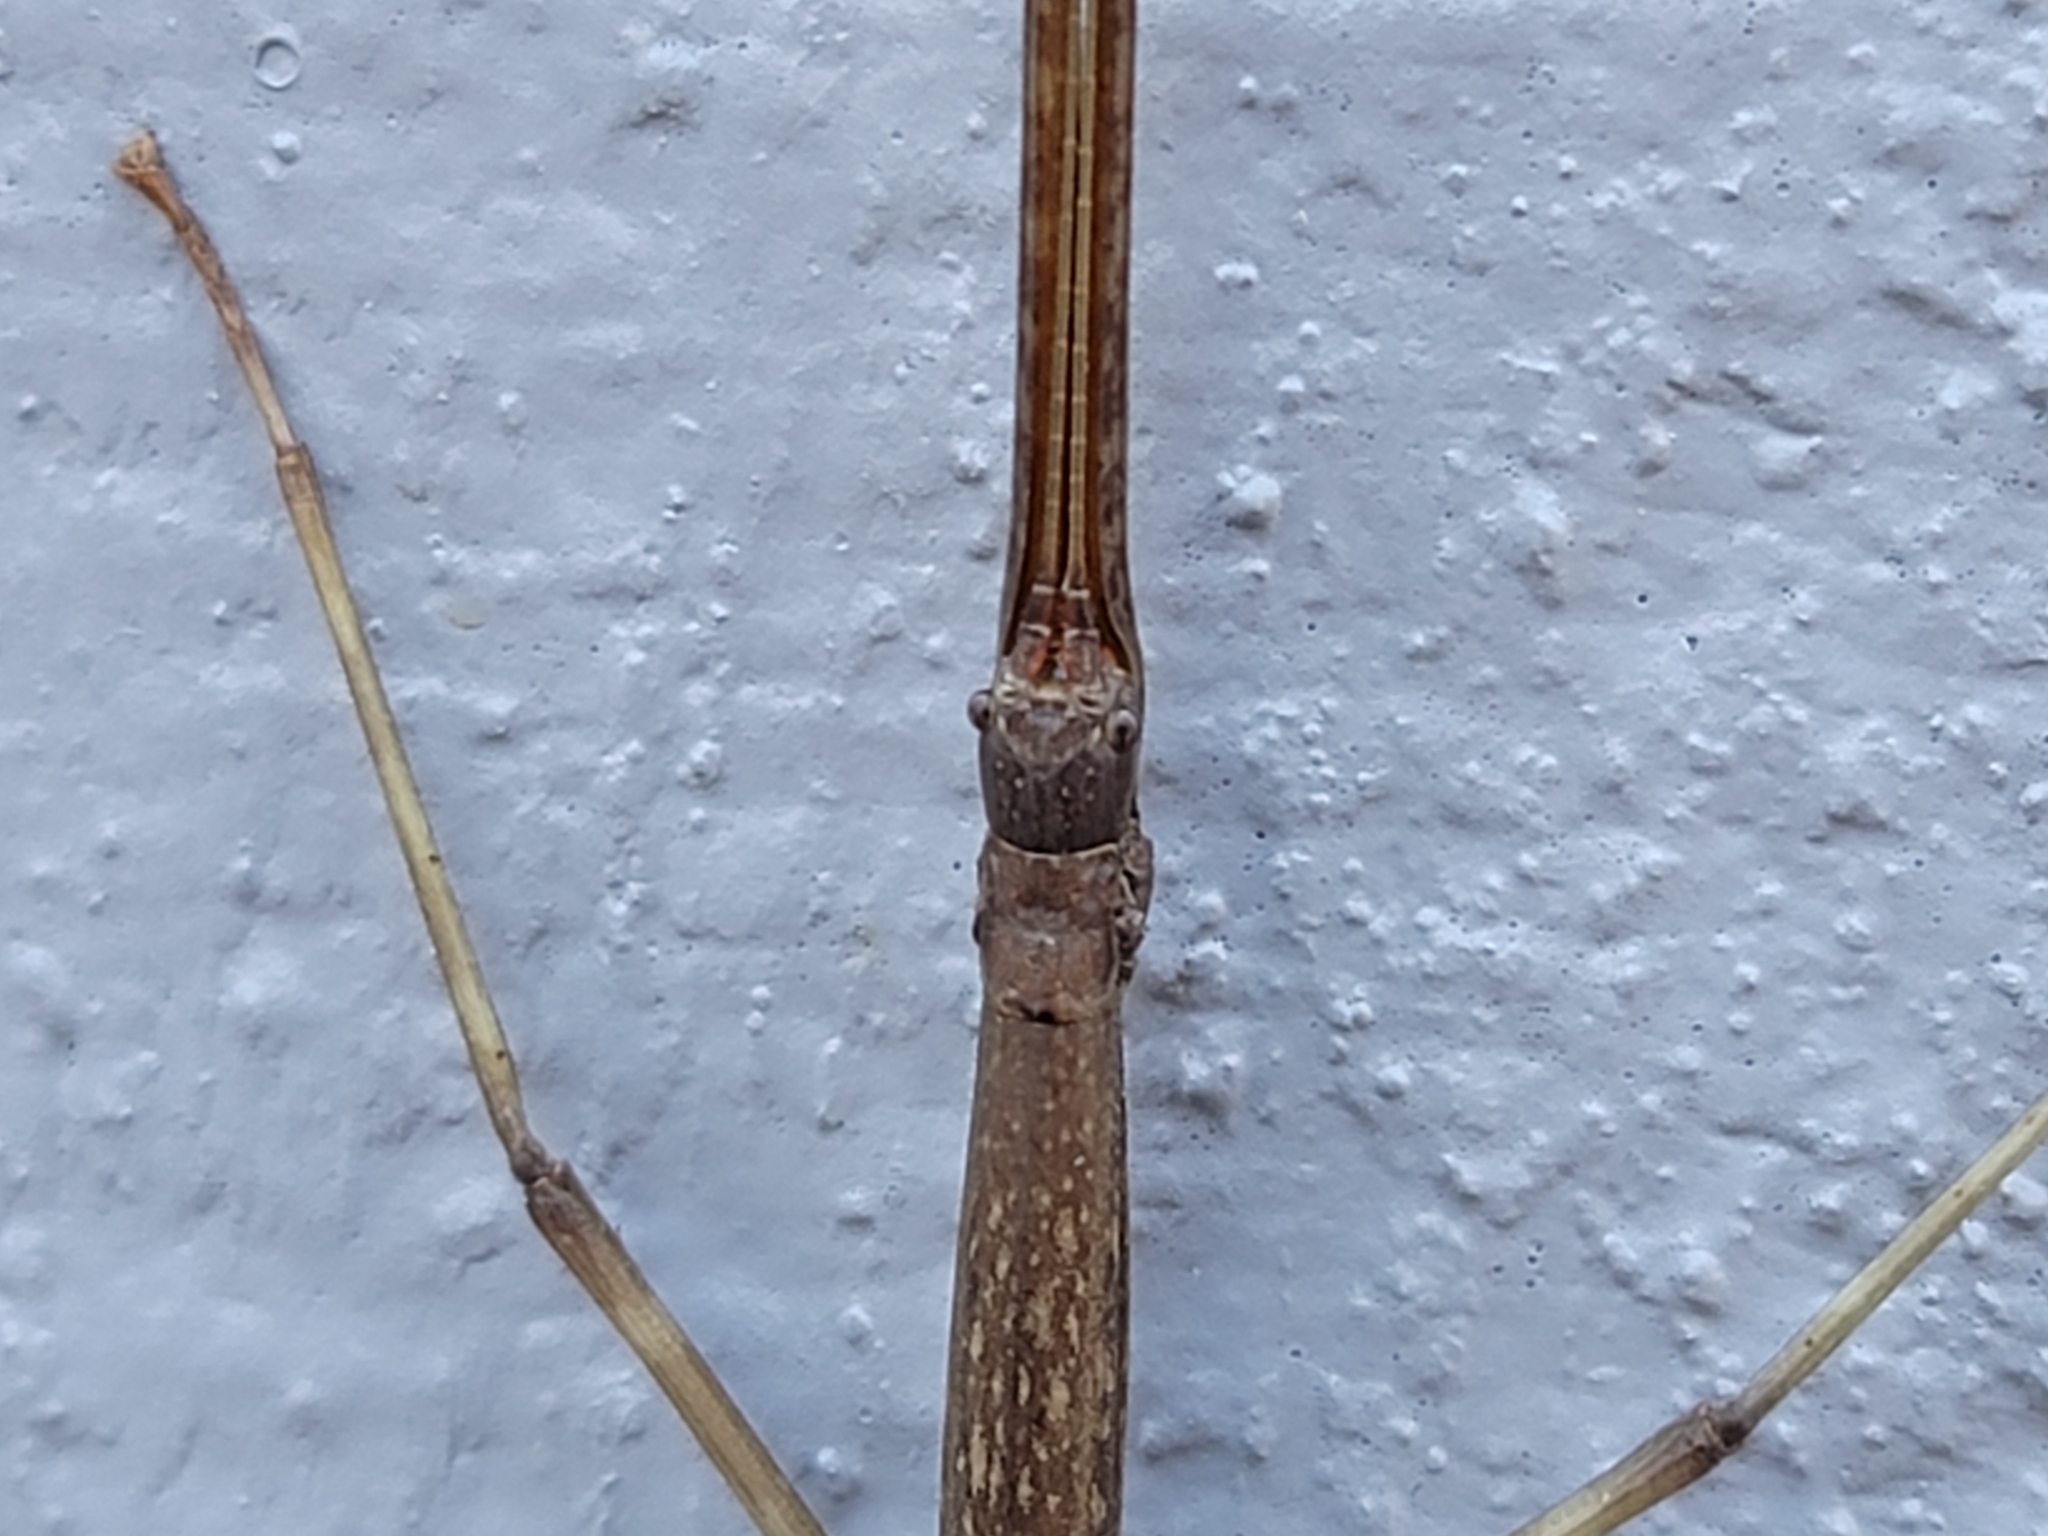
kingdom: Animalia
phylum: Arthropoda
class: Insecta
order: Phasmida
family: Diapheromeridae
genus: Diapheromera
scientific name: Diapheromera femorata
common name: Common american walkingstick
